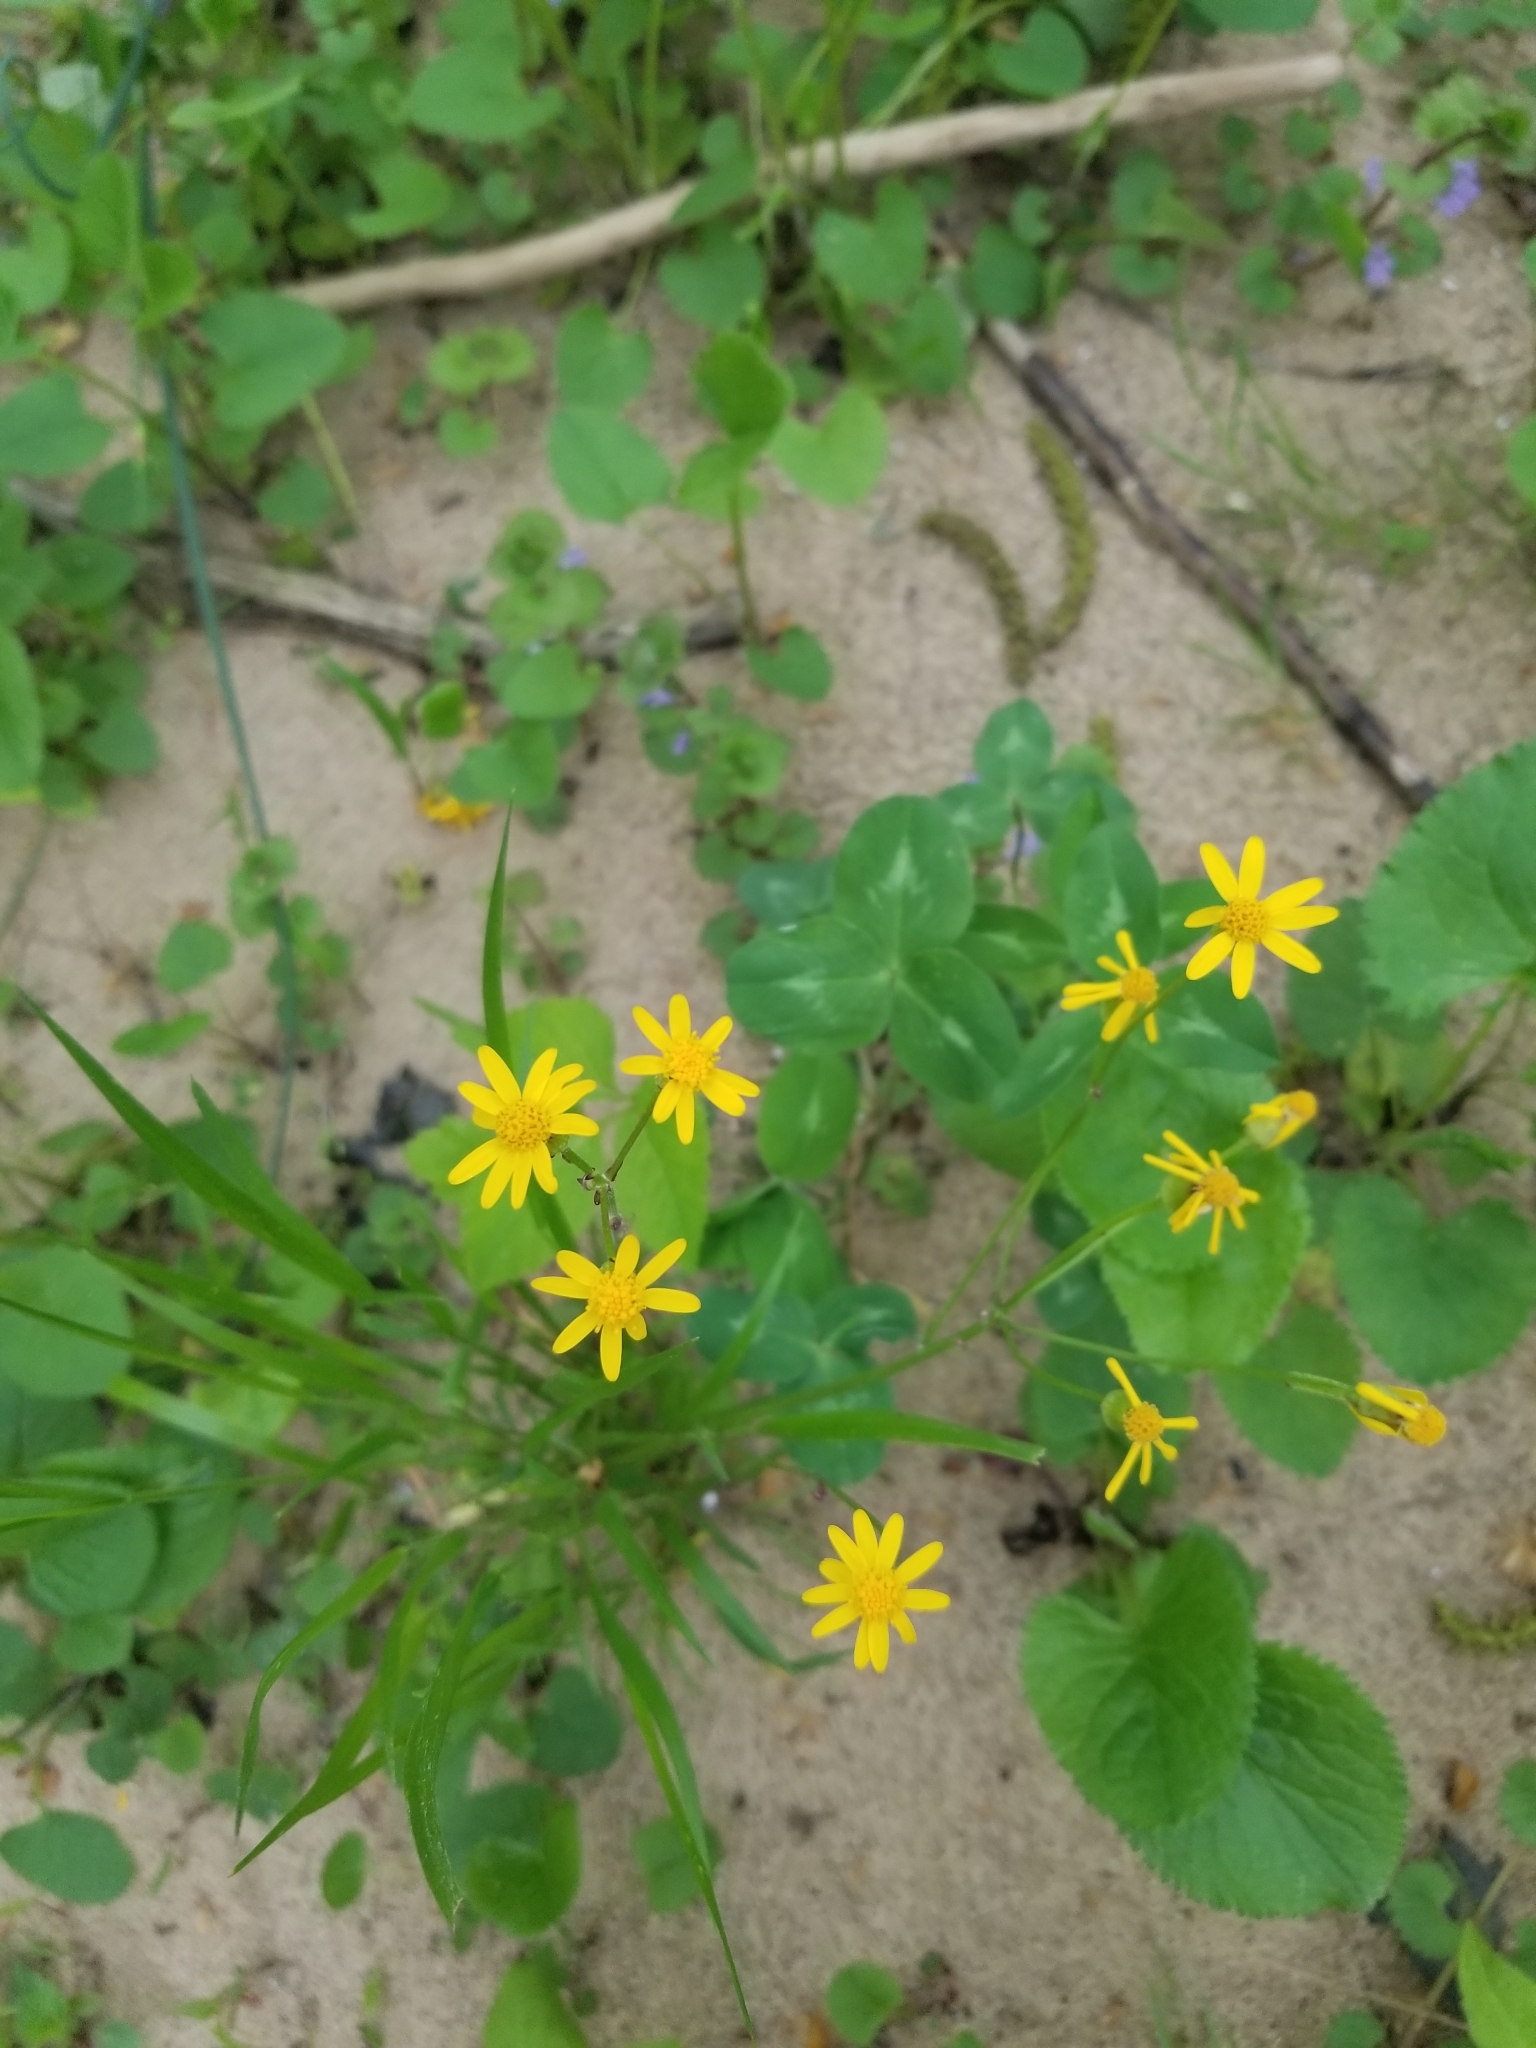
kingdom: Plantae
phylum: Tracheophyta
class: Magnoliopsida
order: Asterales
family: Asteraceae
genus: Packera
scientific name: Packera aurea
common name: Golden groundsel
